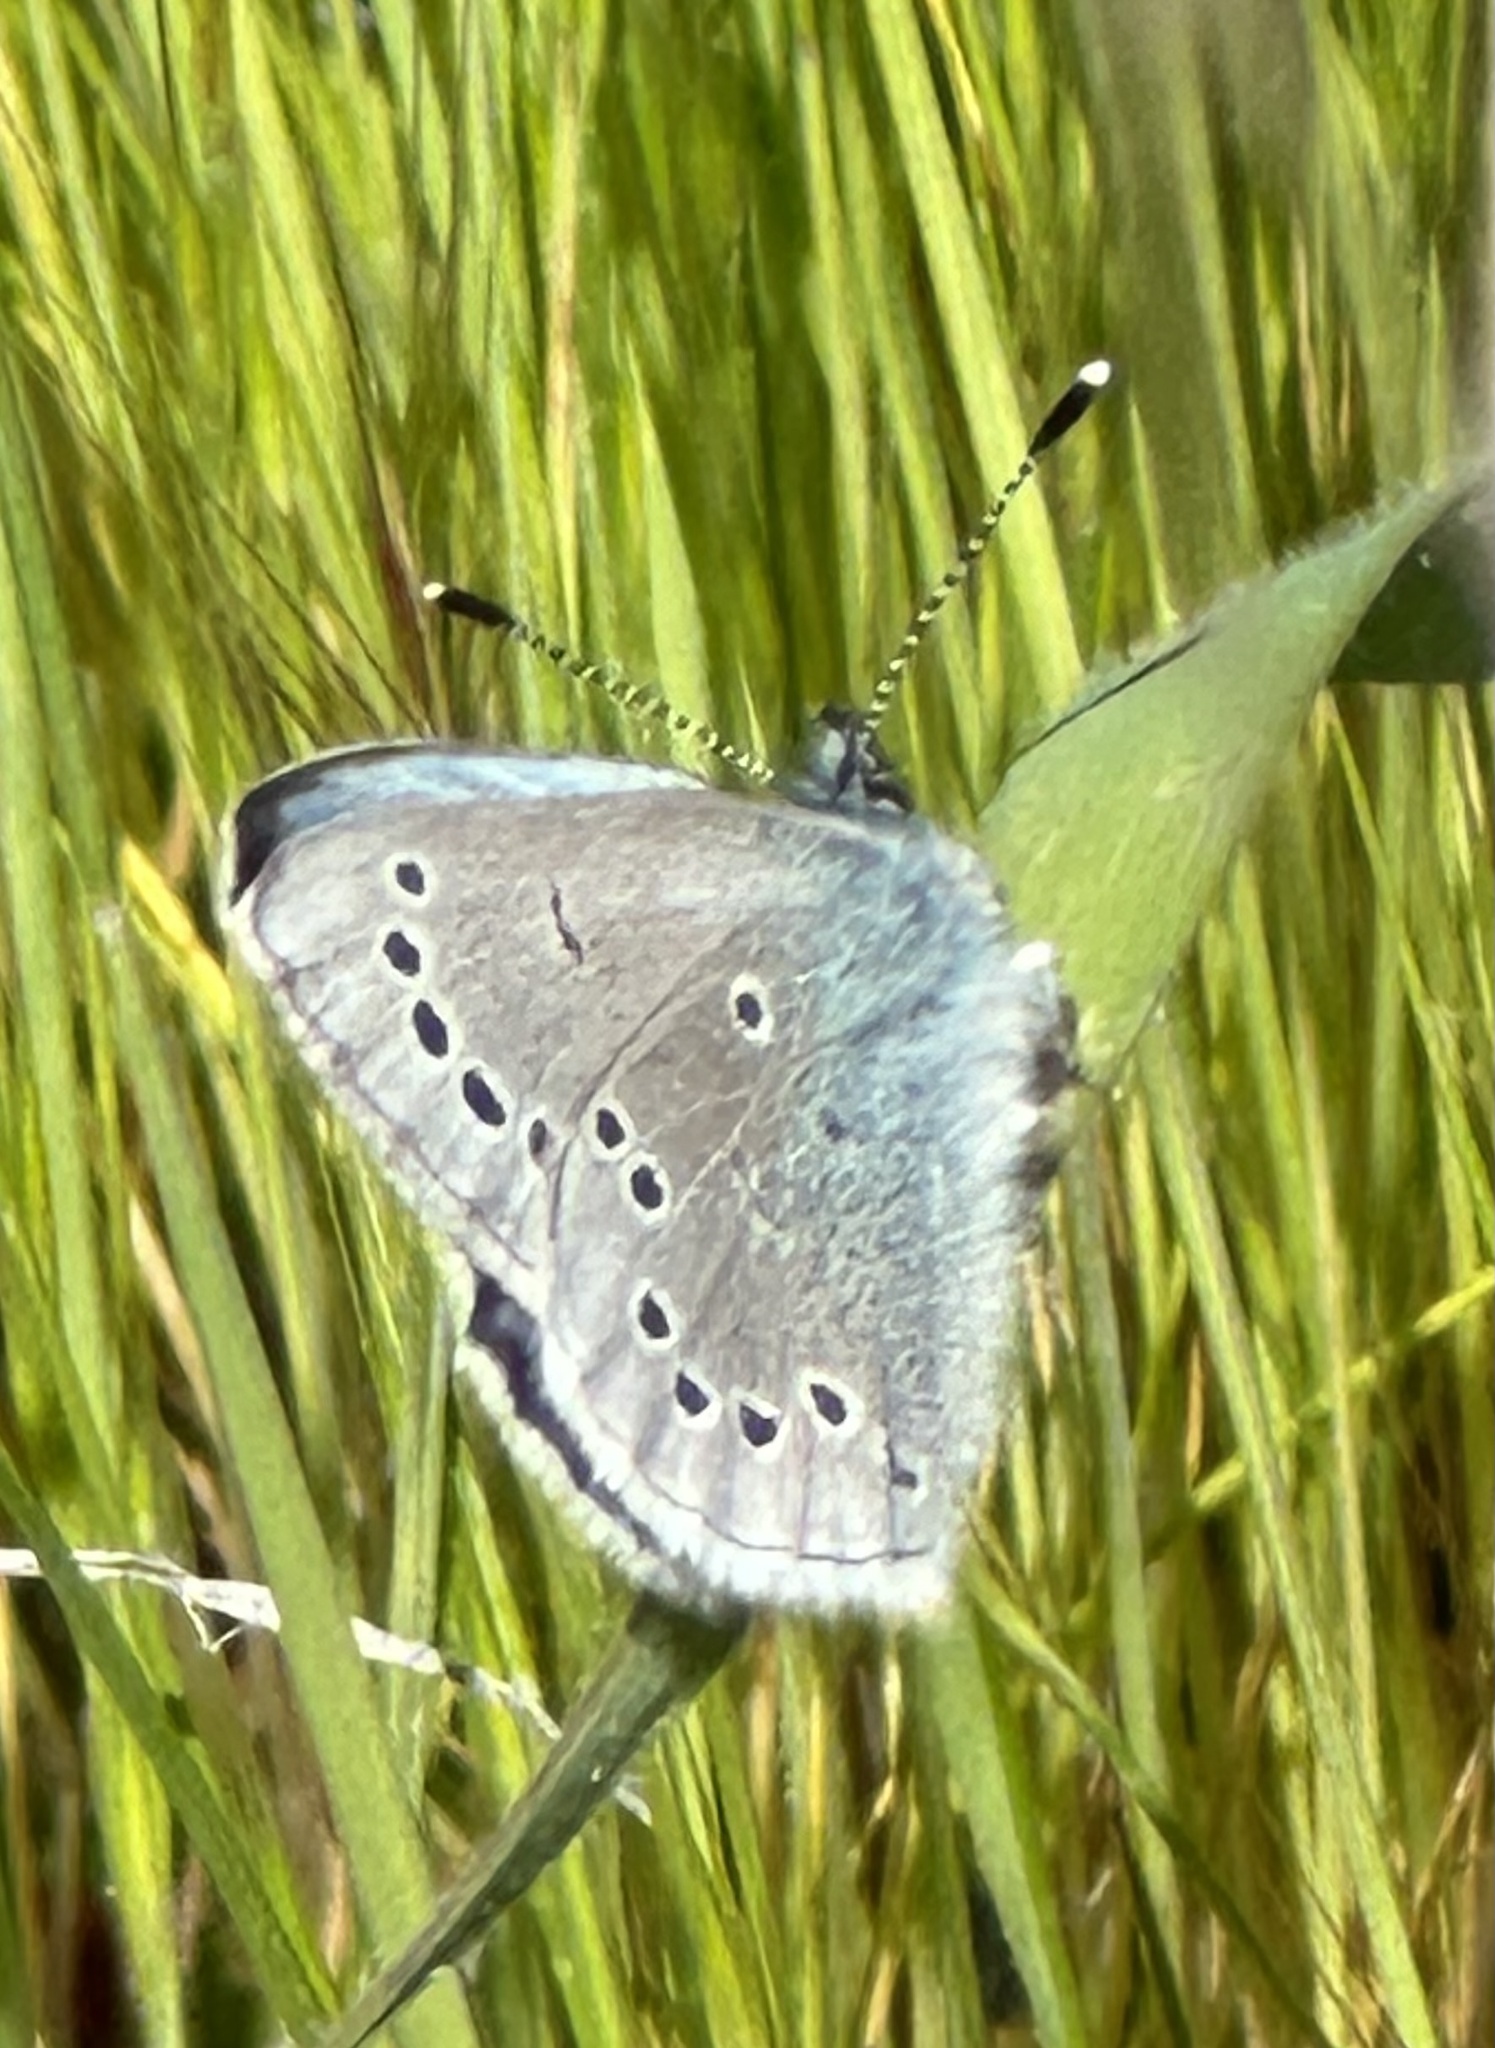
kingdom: Animalia
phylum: Arthropoda
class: Insecta
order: Lepidoptera
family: Lycaenidae
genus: Glaucopsyche
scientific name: Glaucopsyche lygdamus
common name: Silvery blue
